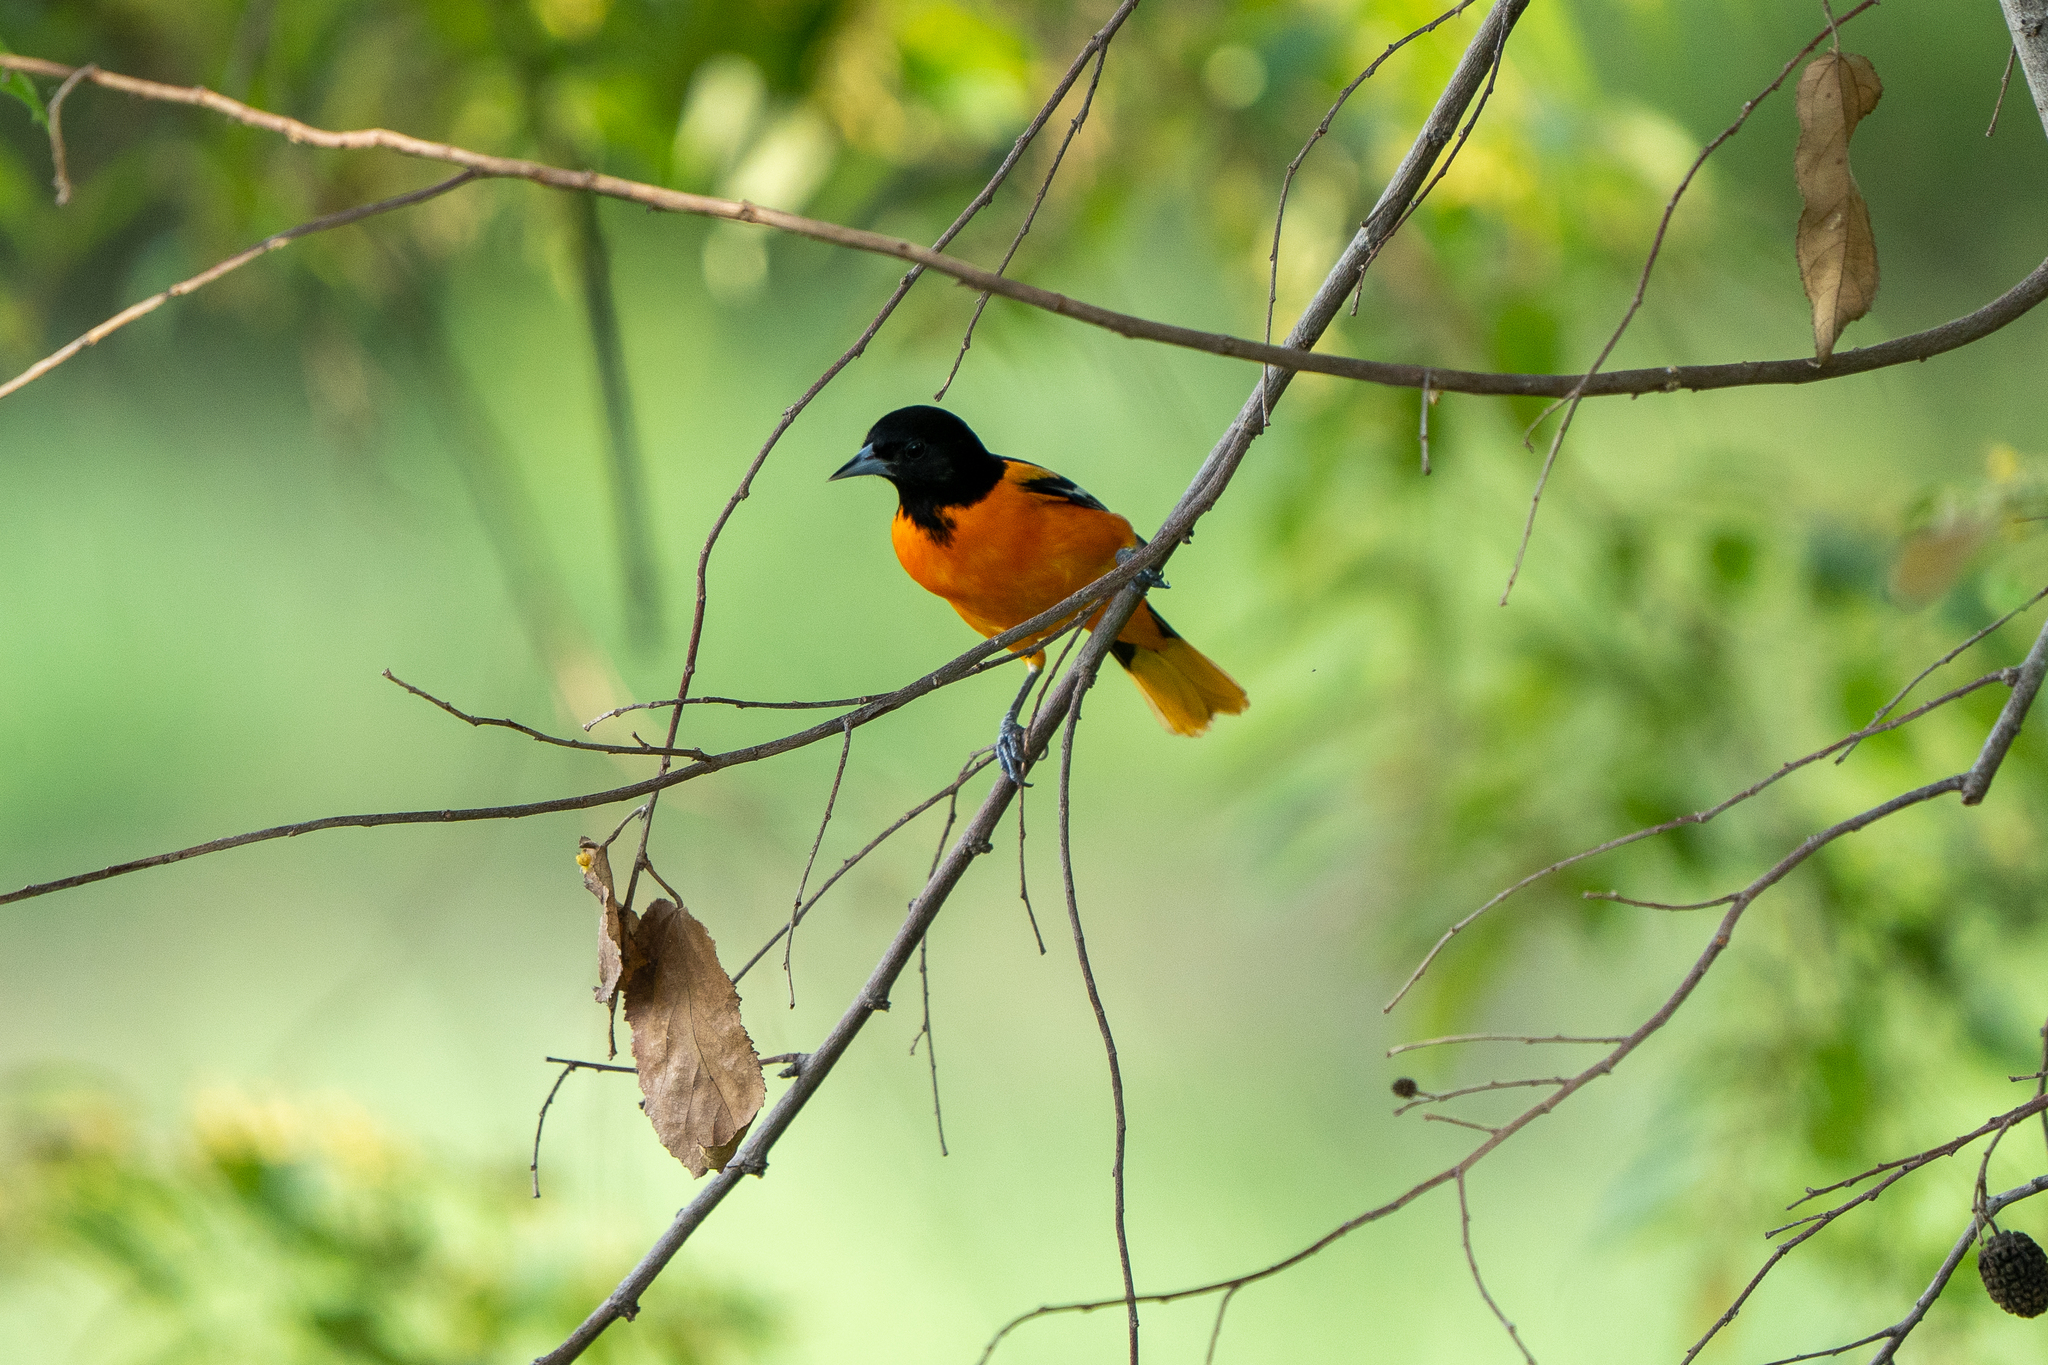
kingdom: Animalia
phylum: Chordata
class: Aves
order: Passeriformes
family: Icteridae
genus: Icterus
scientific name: Icterus galbula
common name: Baltimore oriole
